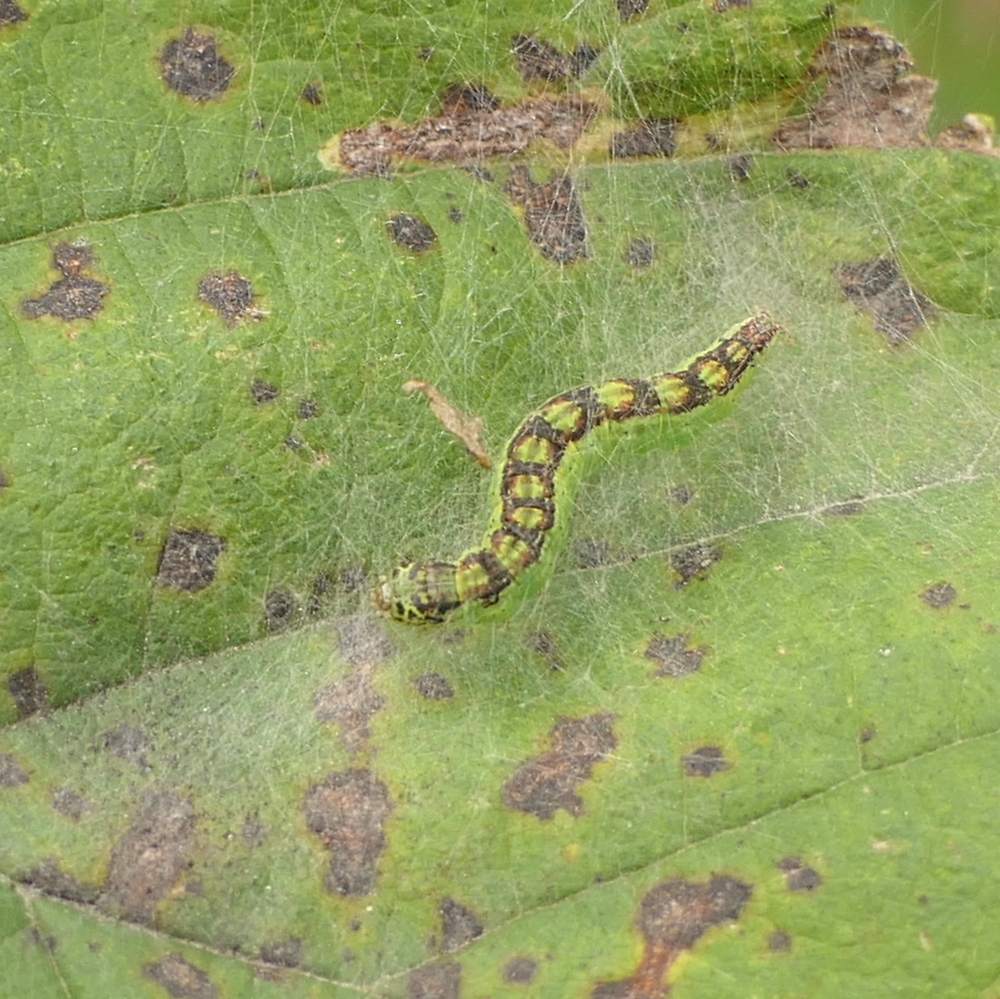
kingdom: Animalia
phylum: Arthropoda
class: Insecta
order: Lepidoptera
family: Pyralidae
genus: Oreana
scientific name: Oreana unicolorella
